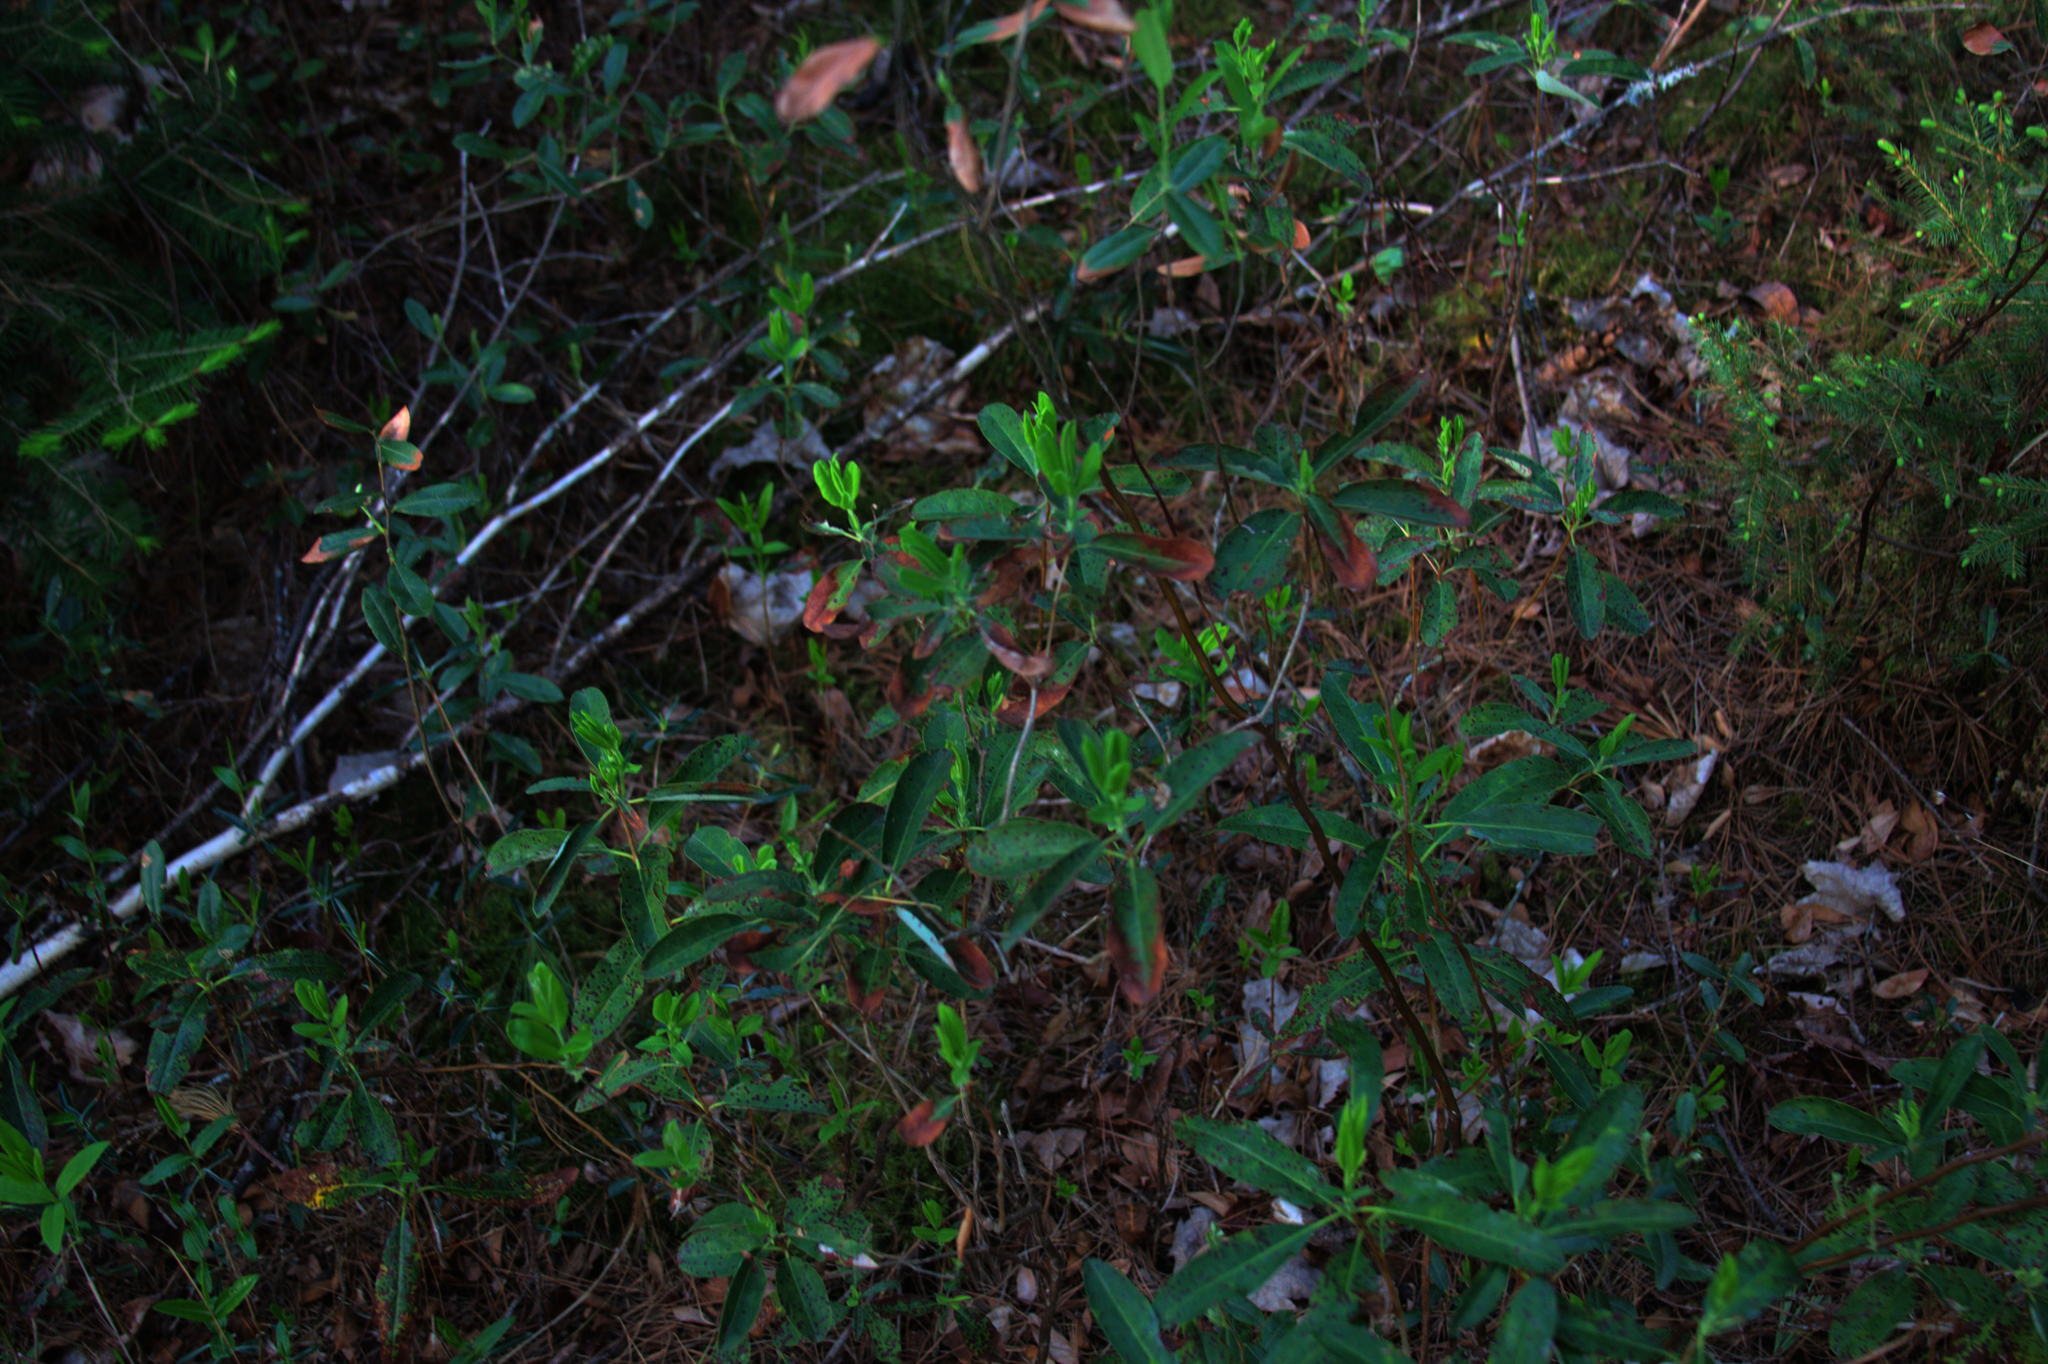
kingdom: Plantae
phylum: Tracheophyta
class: Magnoliopsida
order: Ericales
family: Ericaceae
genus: Kalmia
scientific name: Kalmia angustifolia
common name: Sheep-laurel
